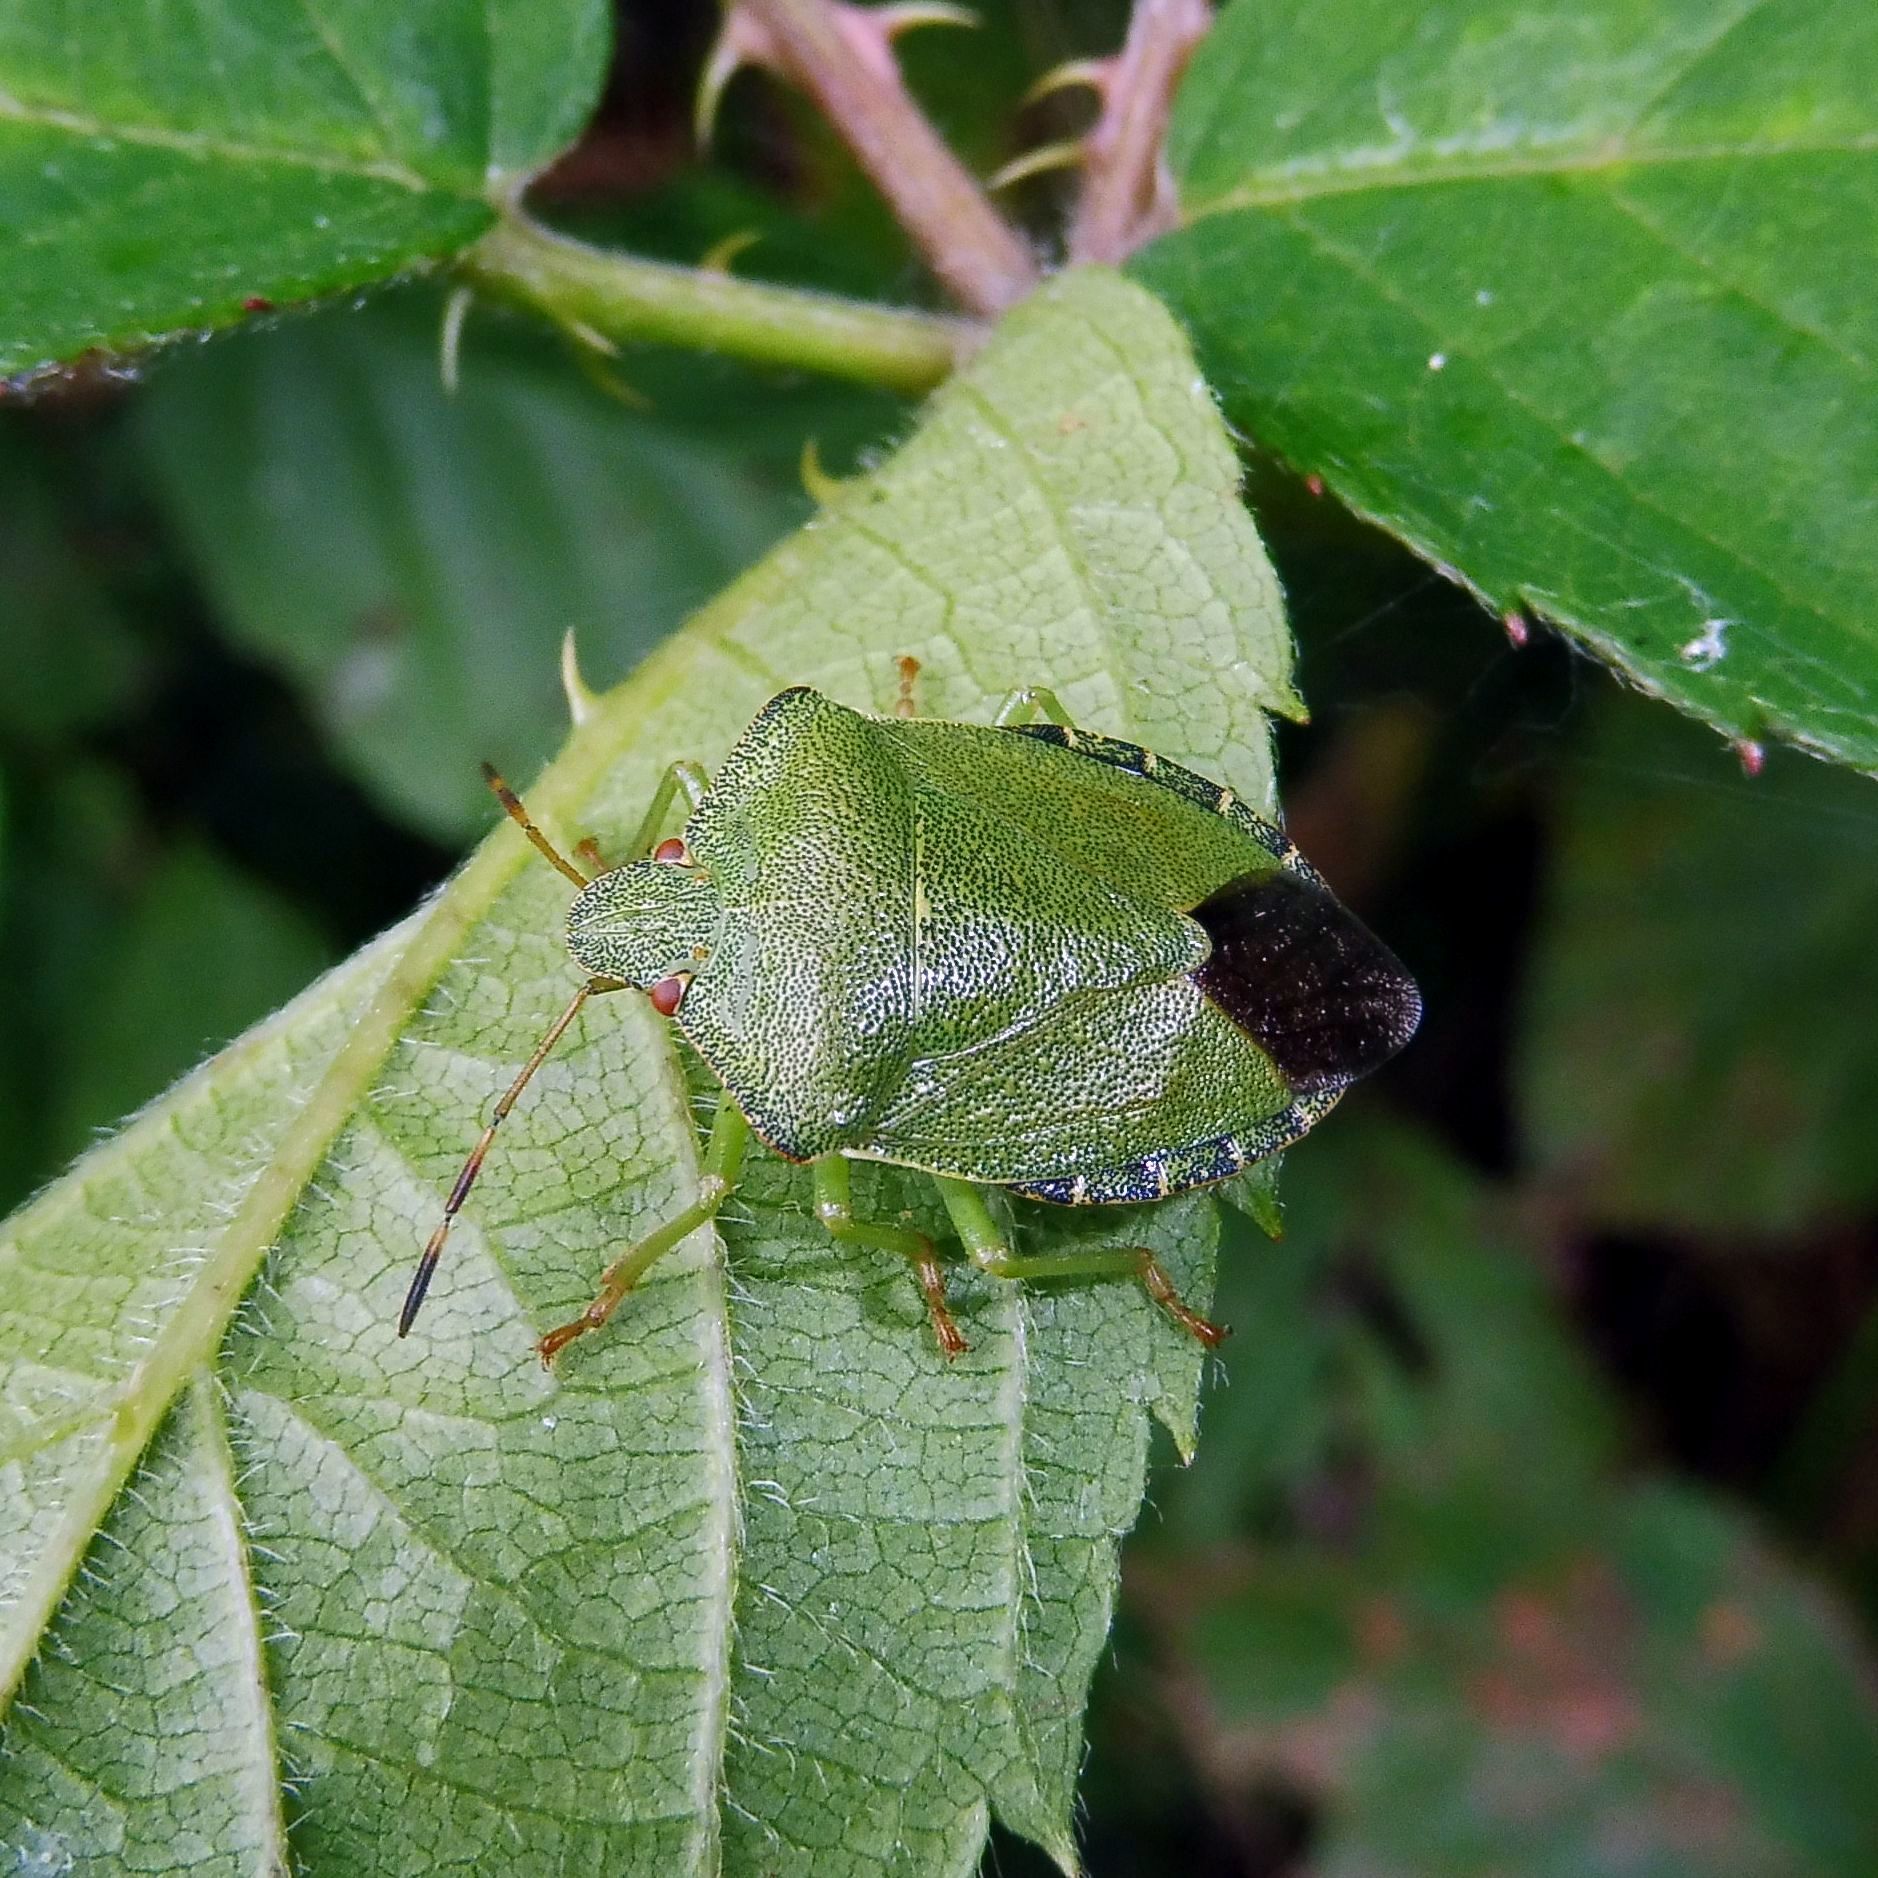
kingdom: Animalia
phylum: Arthropoda
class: Insecta
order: Hemiptera
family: Pentatomidae
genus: Palomena
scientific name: Palomena prasina
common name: Green shieldbug
